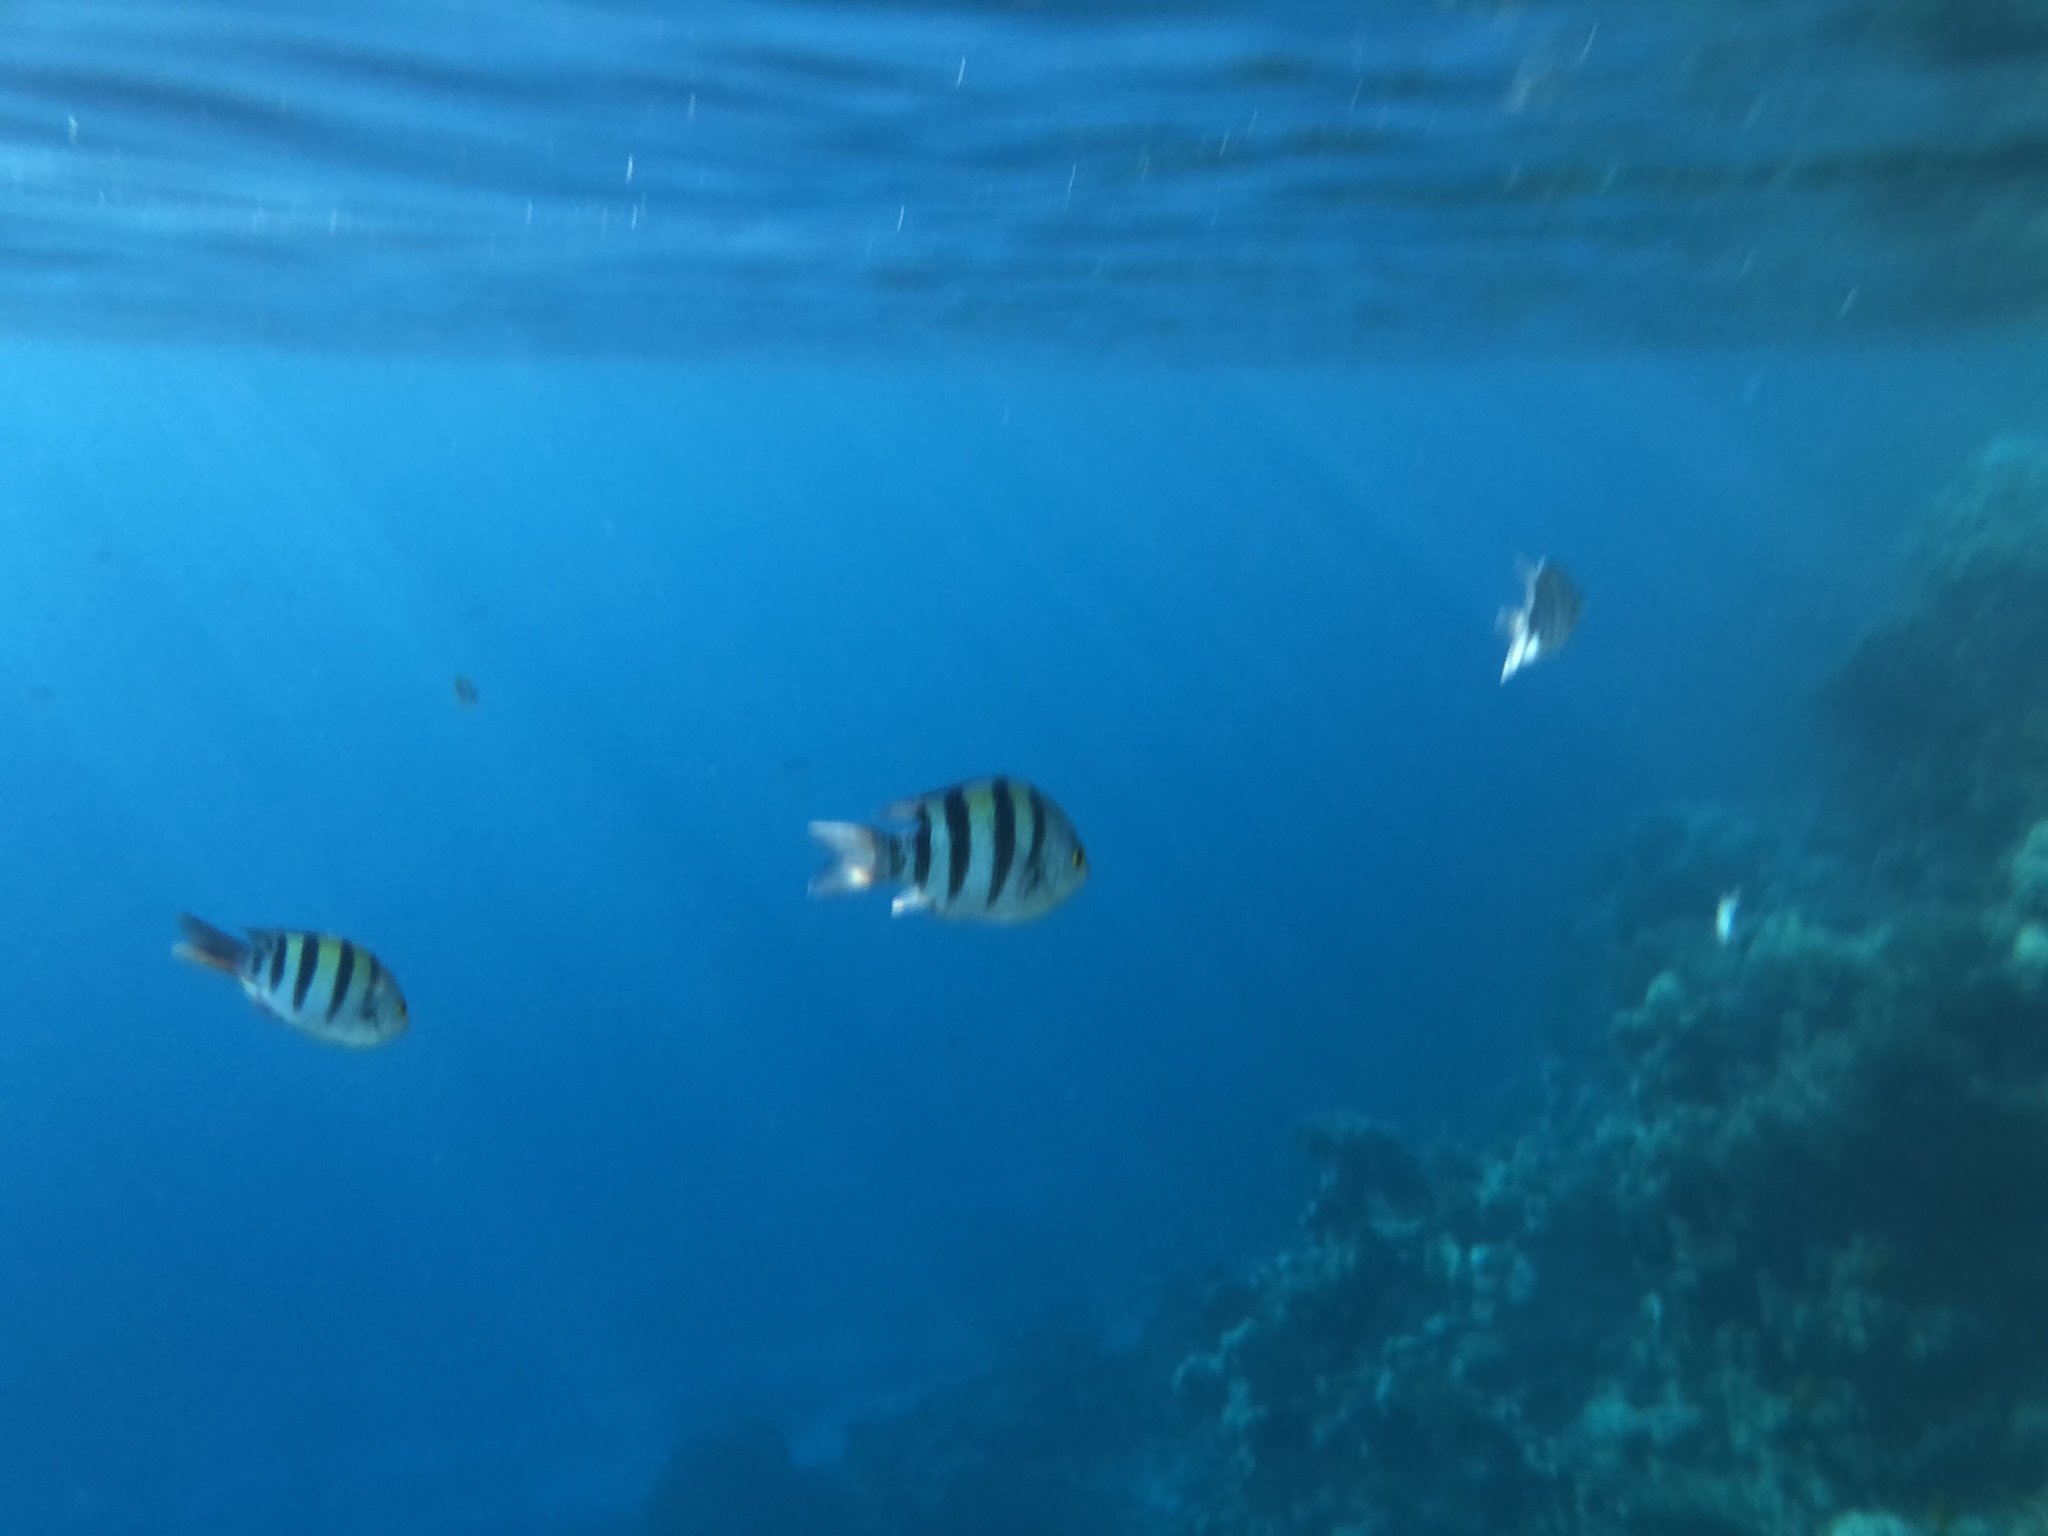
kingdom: Animalia
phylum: Chordata
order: Perciformes
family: Pomacentridae
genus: Abudefduf
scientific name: Abudefduf vaigiensis
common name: Indo-pacific sergeant
